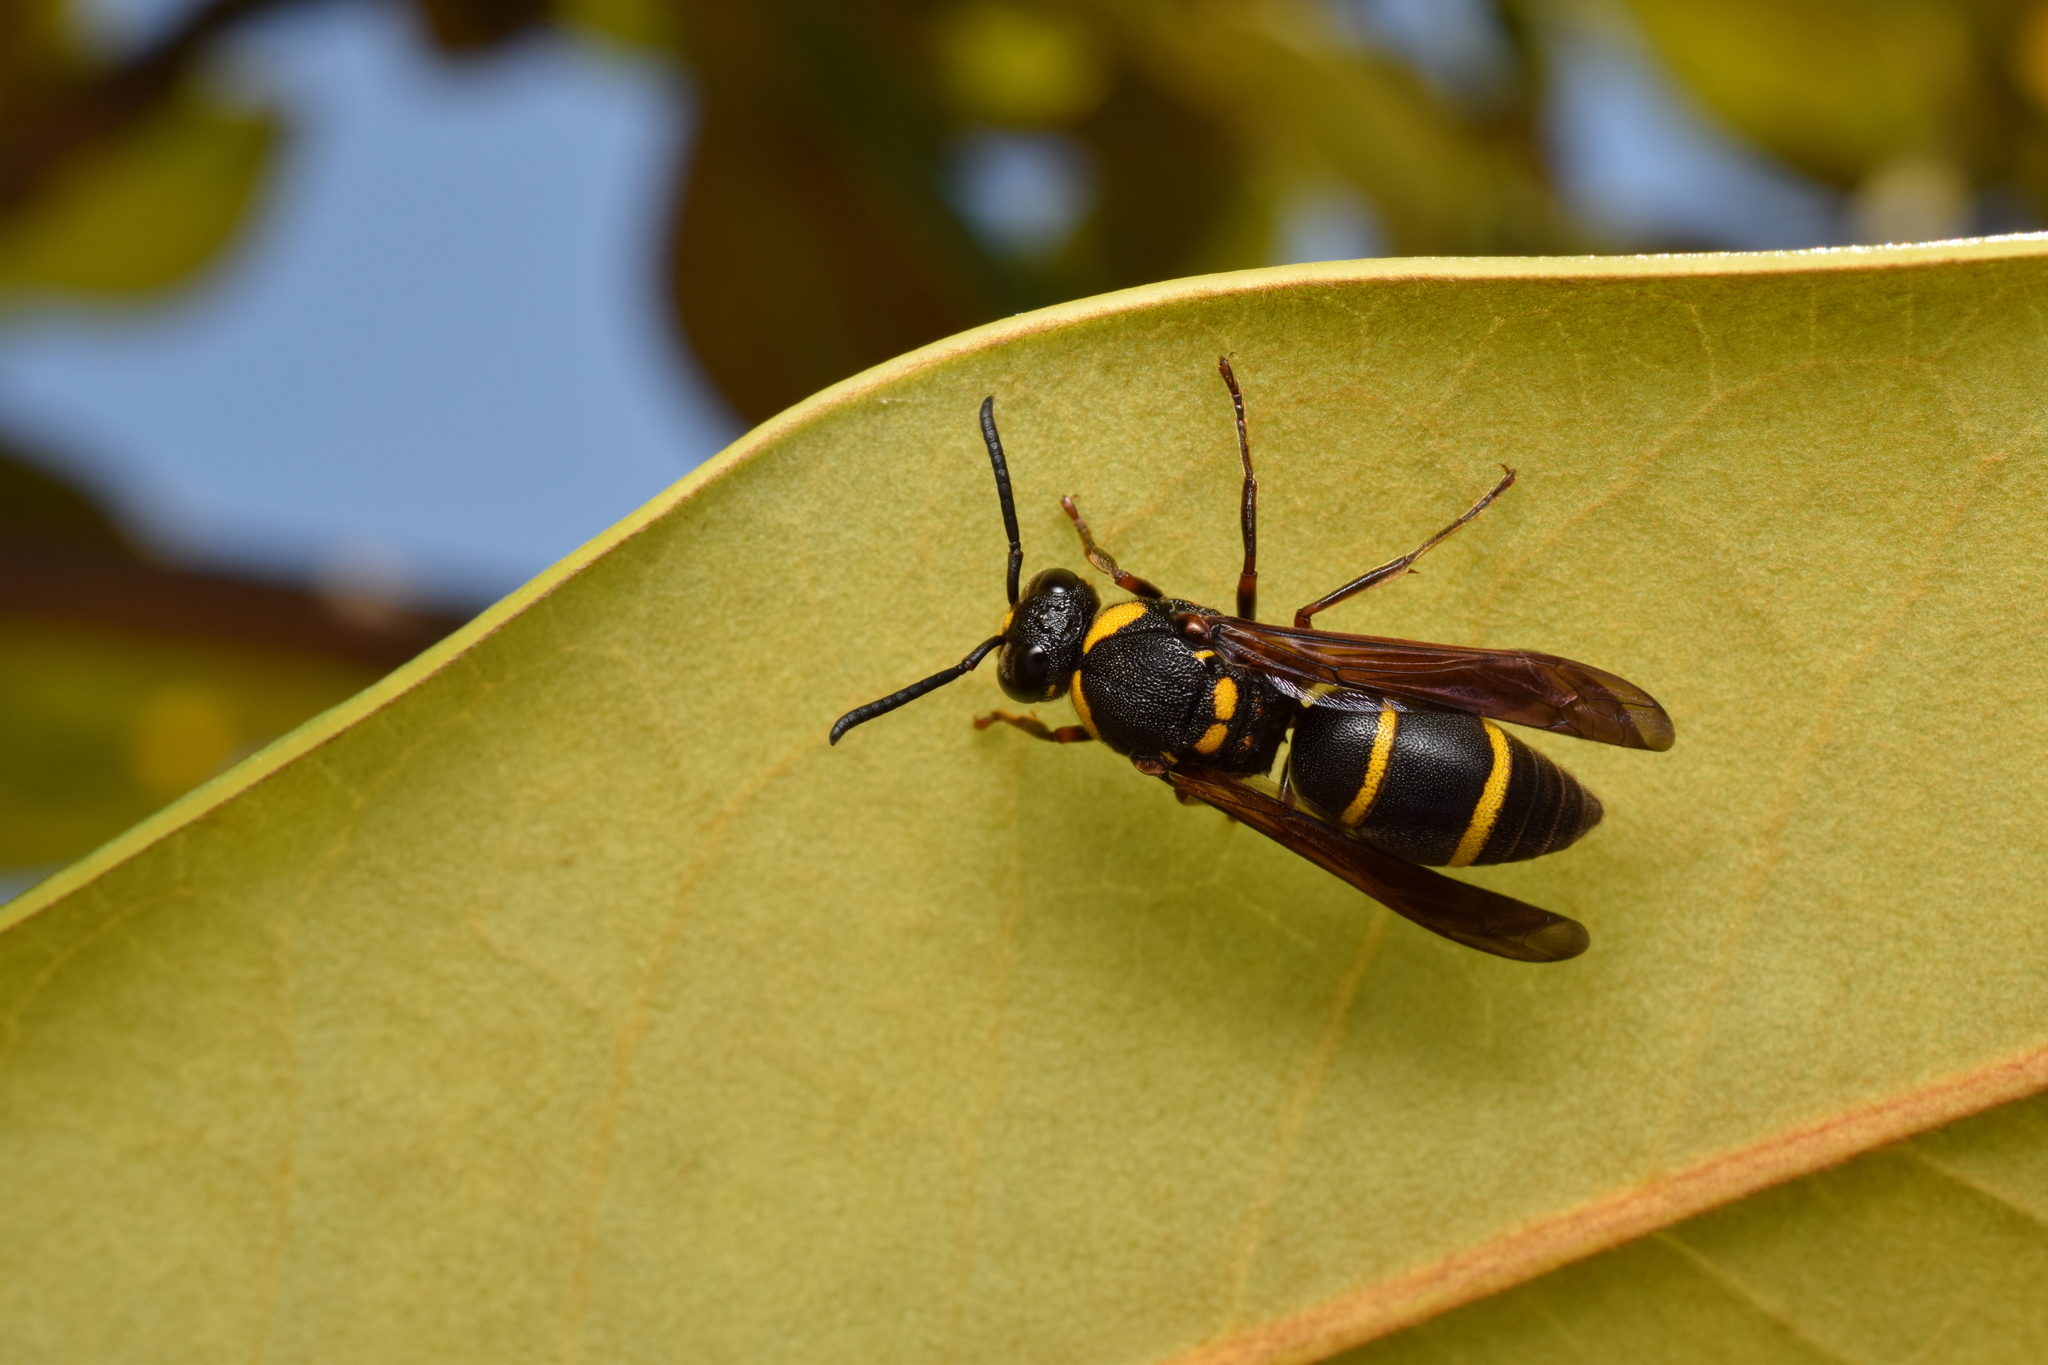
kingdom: Animalia
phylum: Arthropoda
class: Insecta
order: Hymenoptera
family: Eumenidae
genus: Anterhynchium
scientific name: Anterhynchium flavomarginatum
